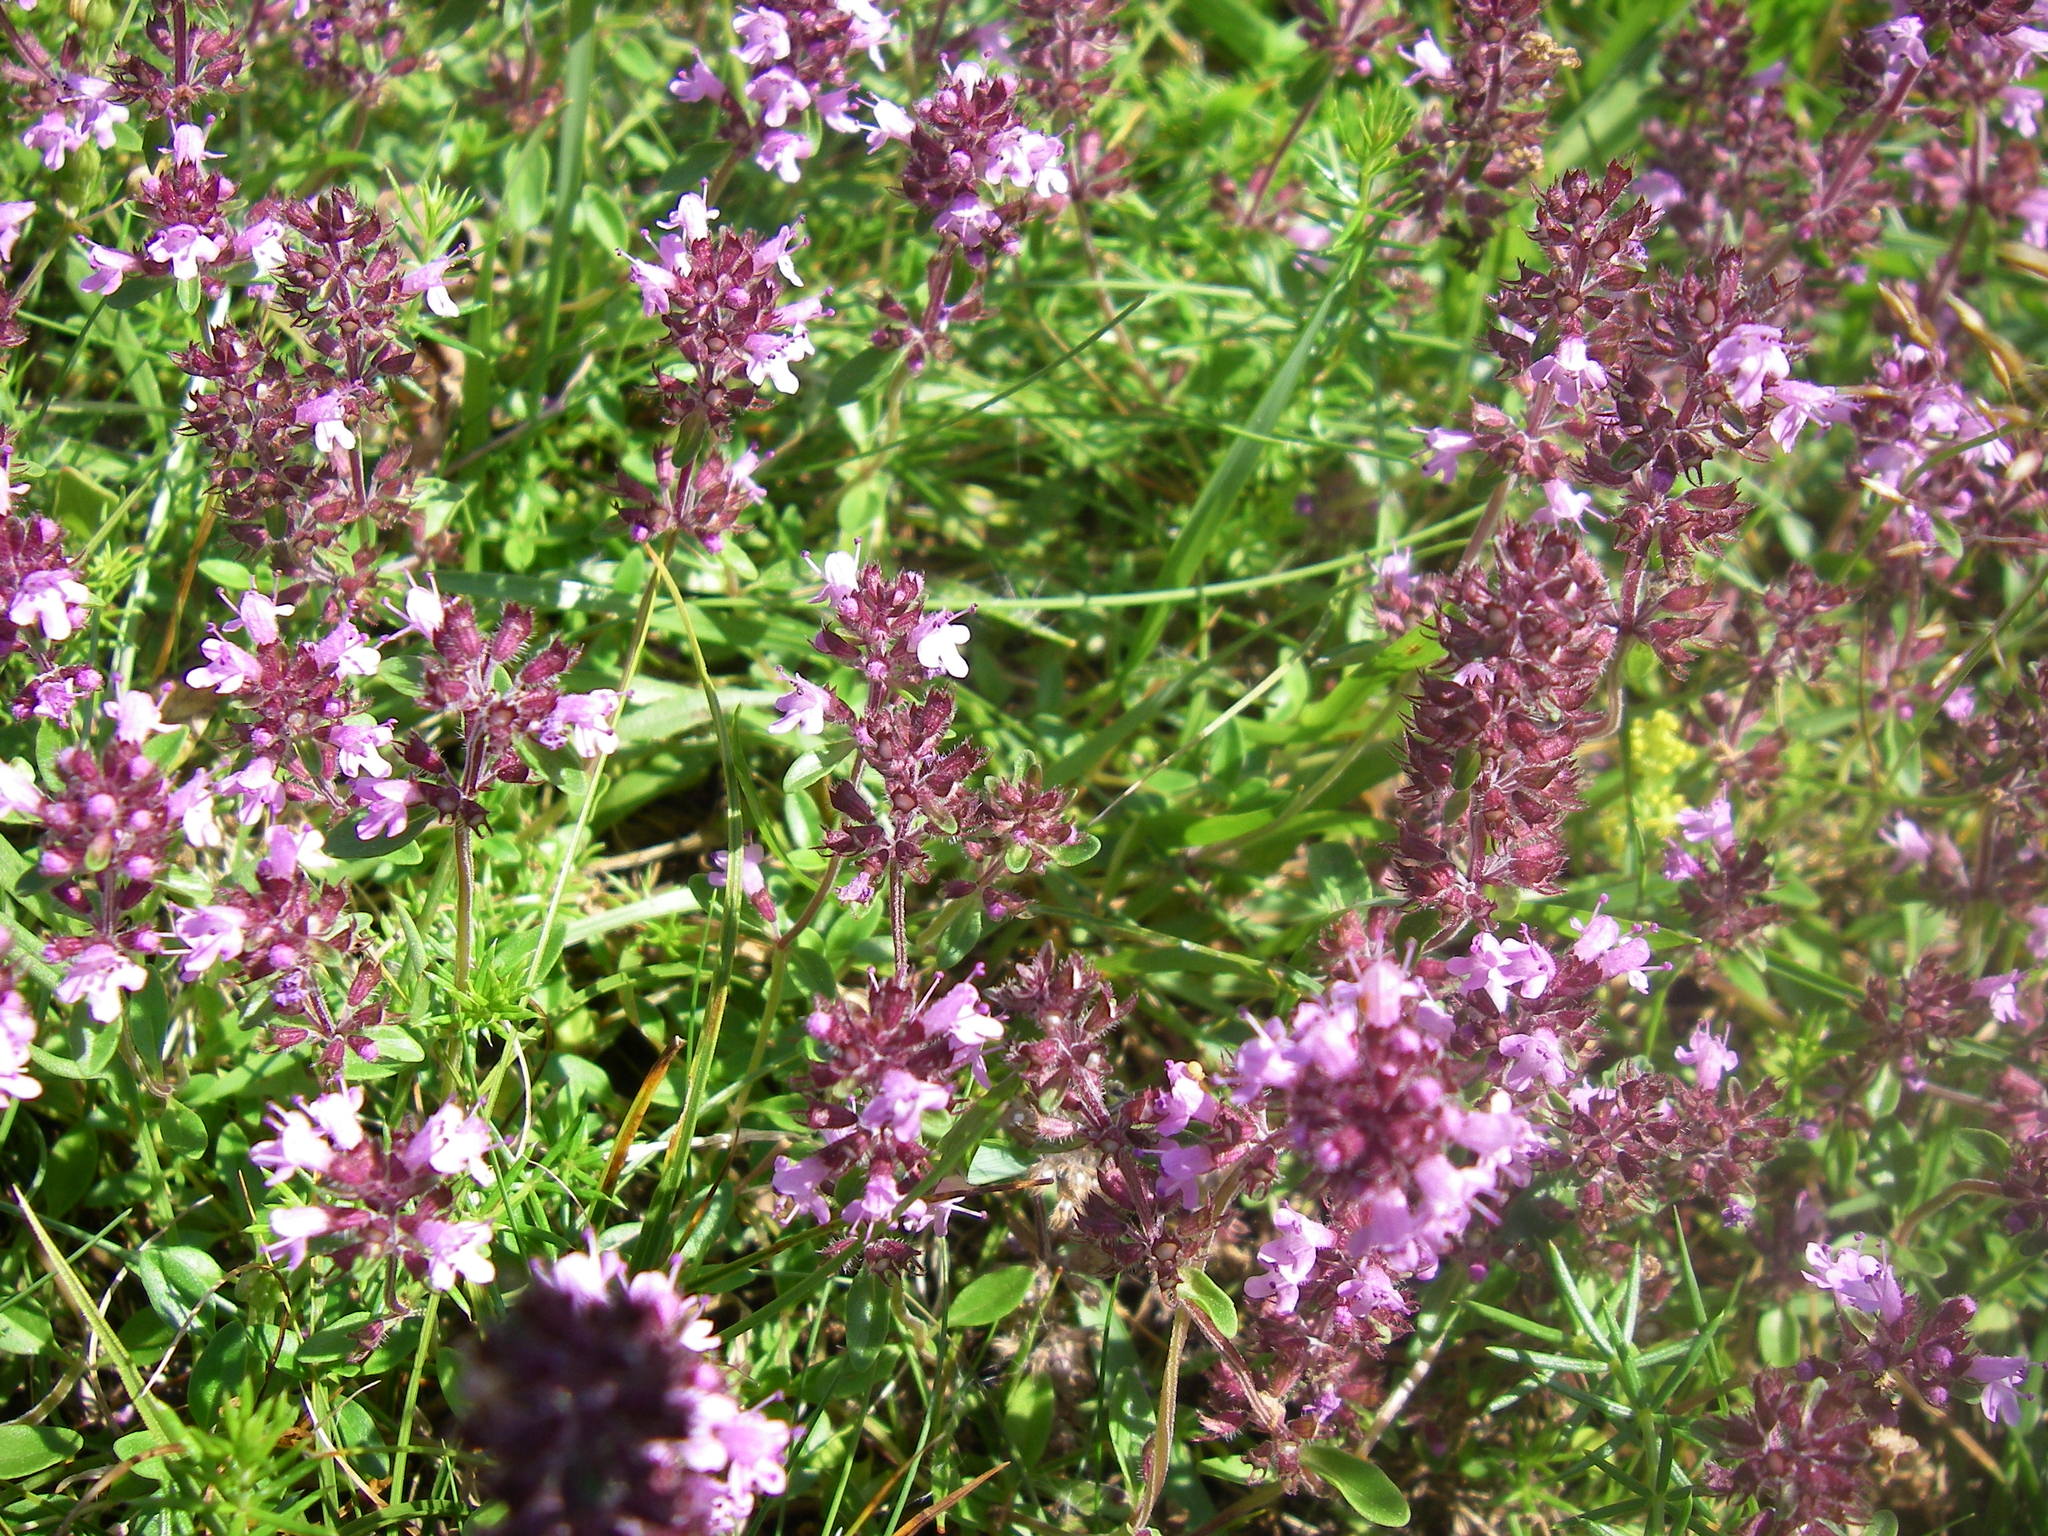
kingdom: Plantae
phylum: Tracheophyta
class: Magnoliopsida
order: Lamiales
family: Lamiaceae
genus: Thymus
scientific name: Thymus pulegioides
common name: Large thyme
